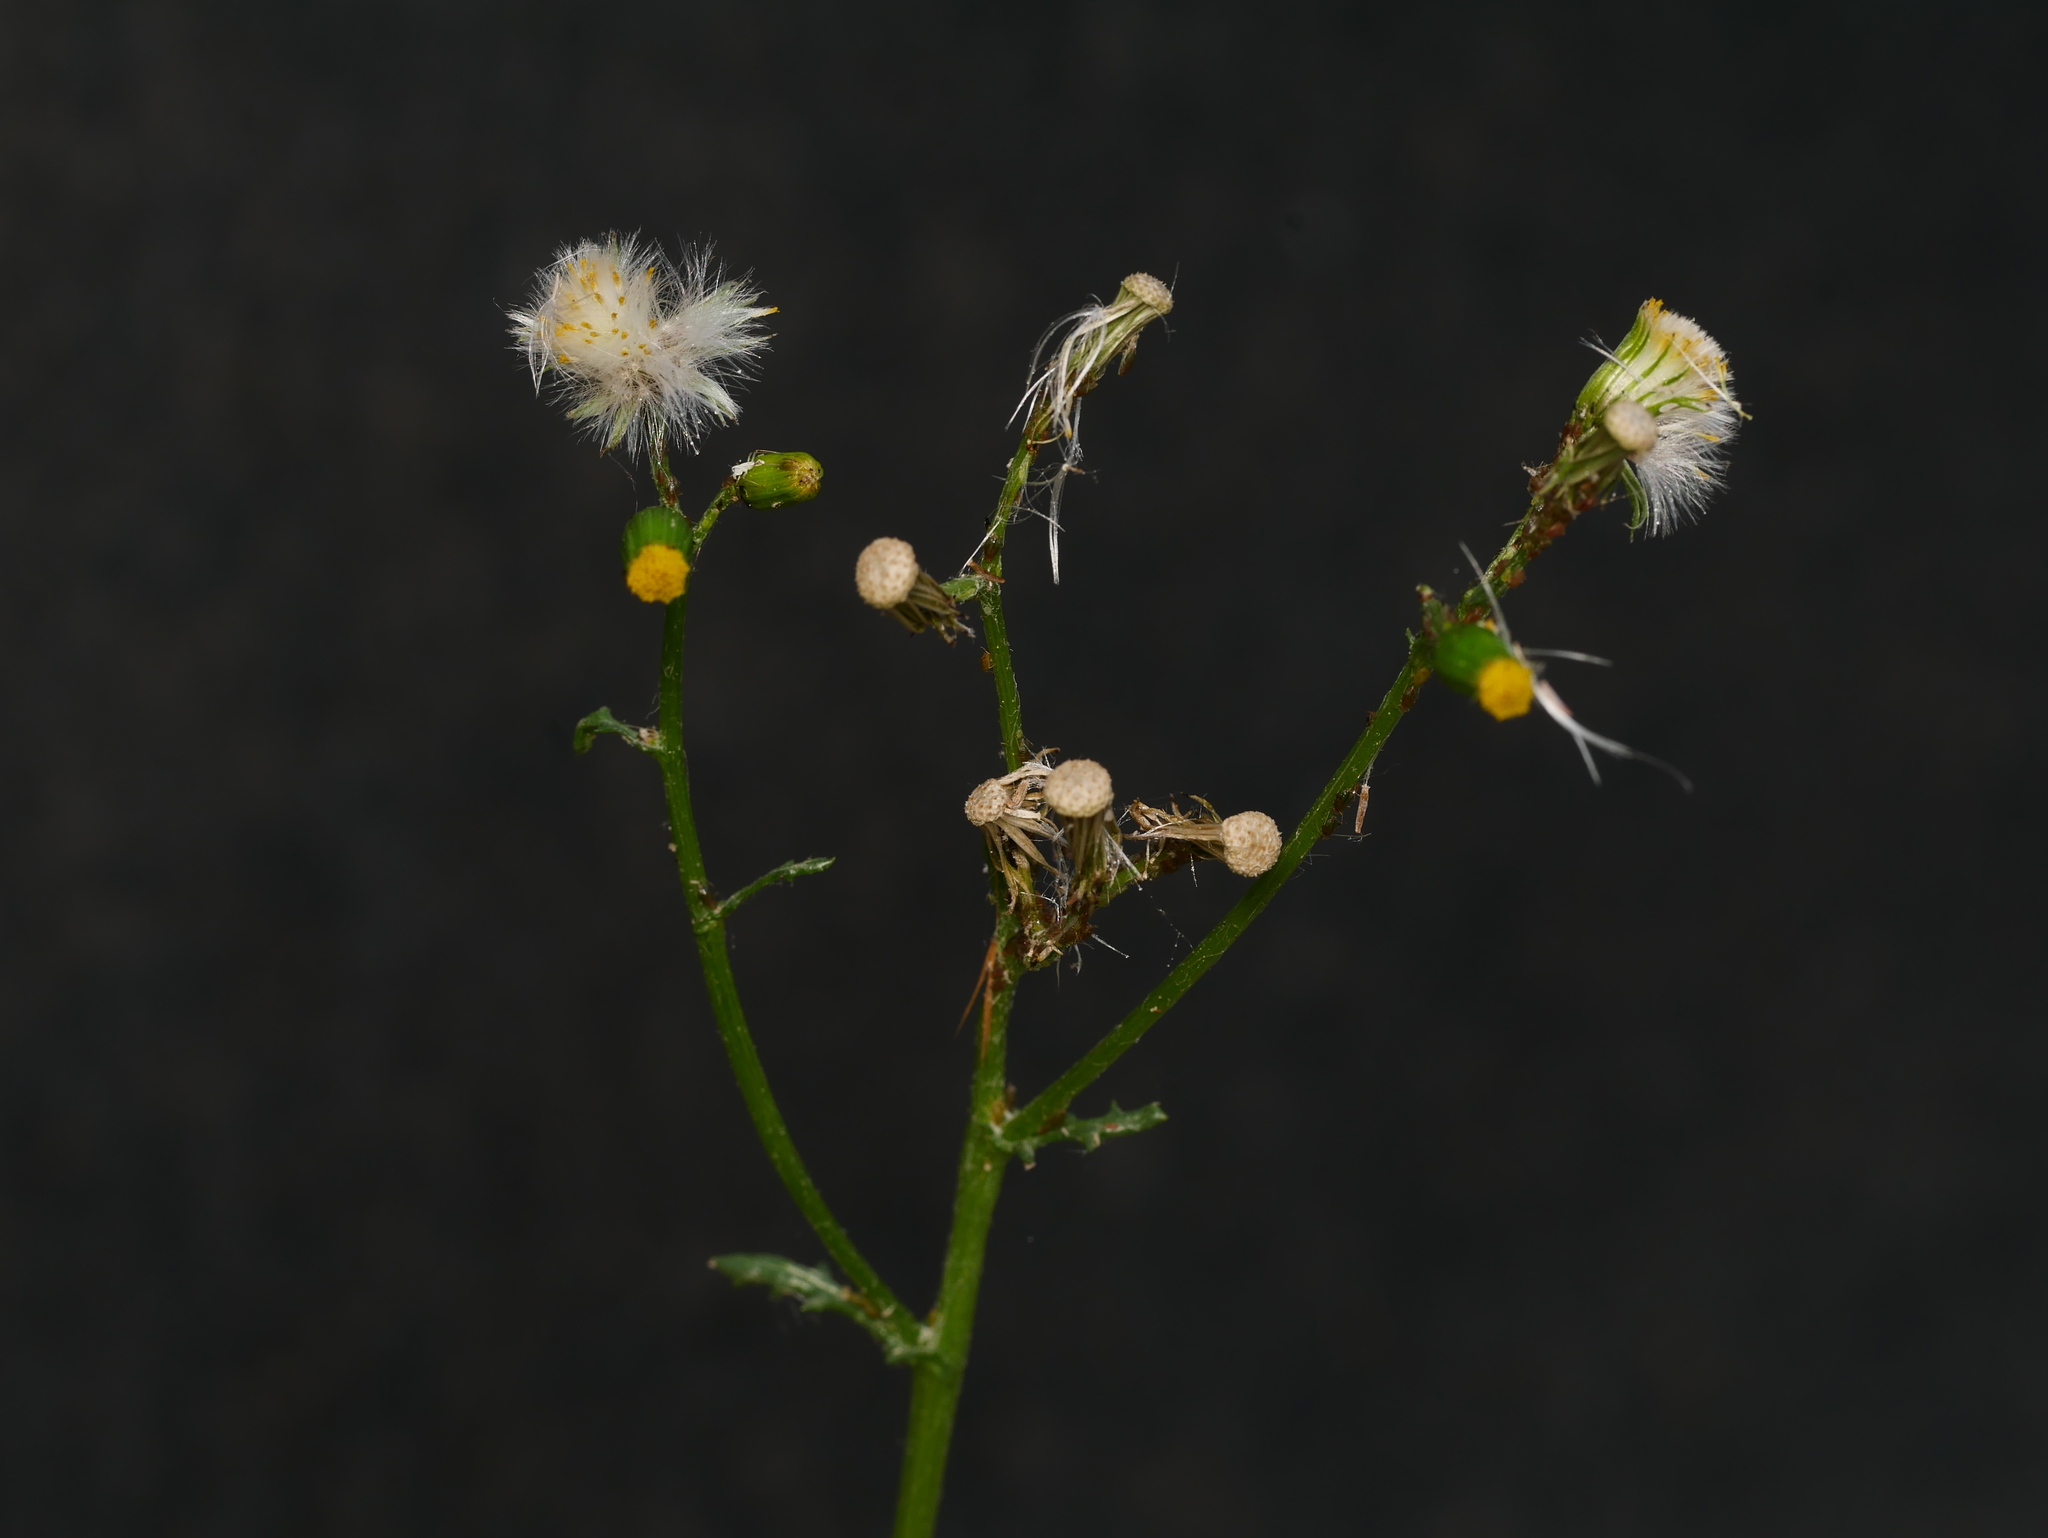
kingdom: Plantae
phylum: Tracheophyta
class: Magnoliopsida
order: Asterales
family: Asteraceae
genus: Senecio
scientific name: Senecio vulgaris
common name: Old-man-in-the-spring
